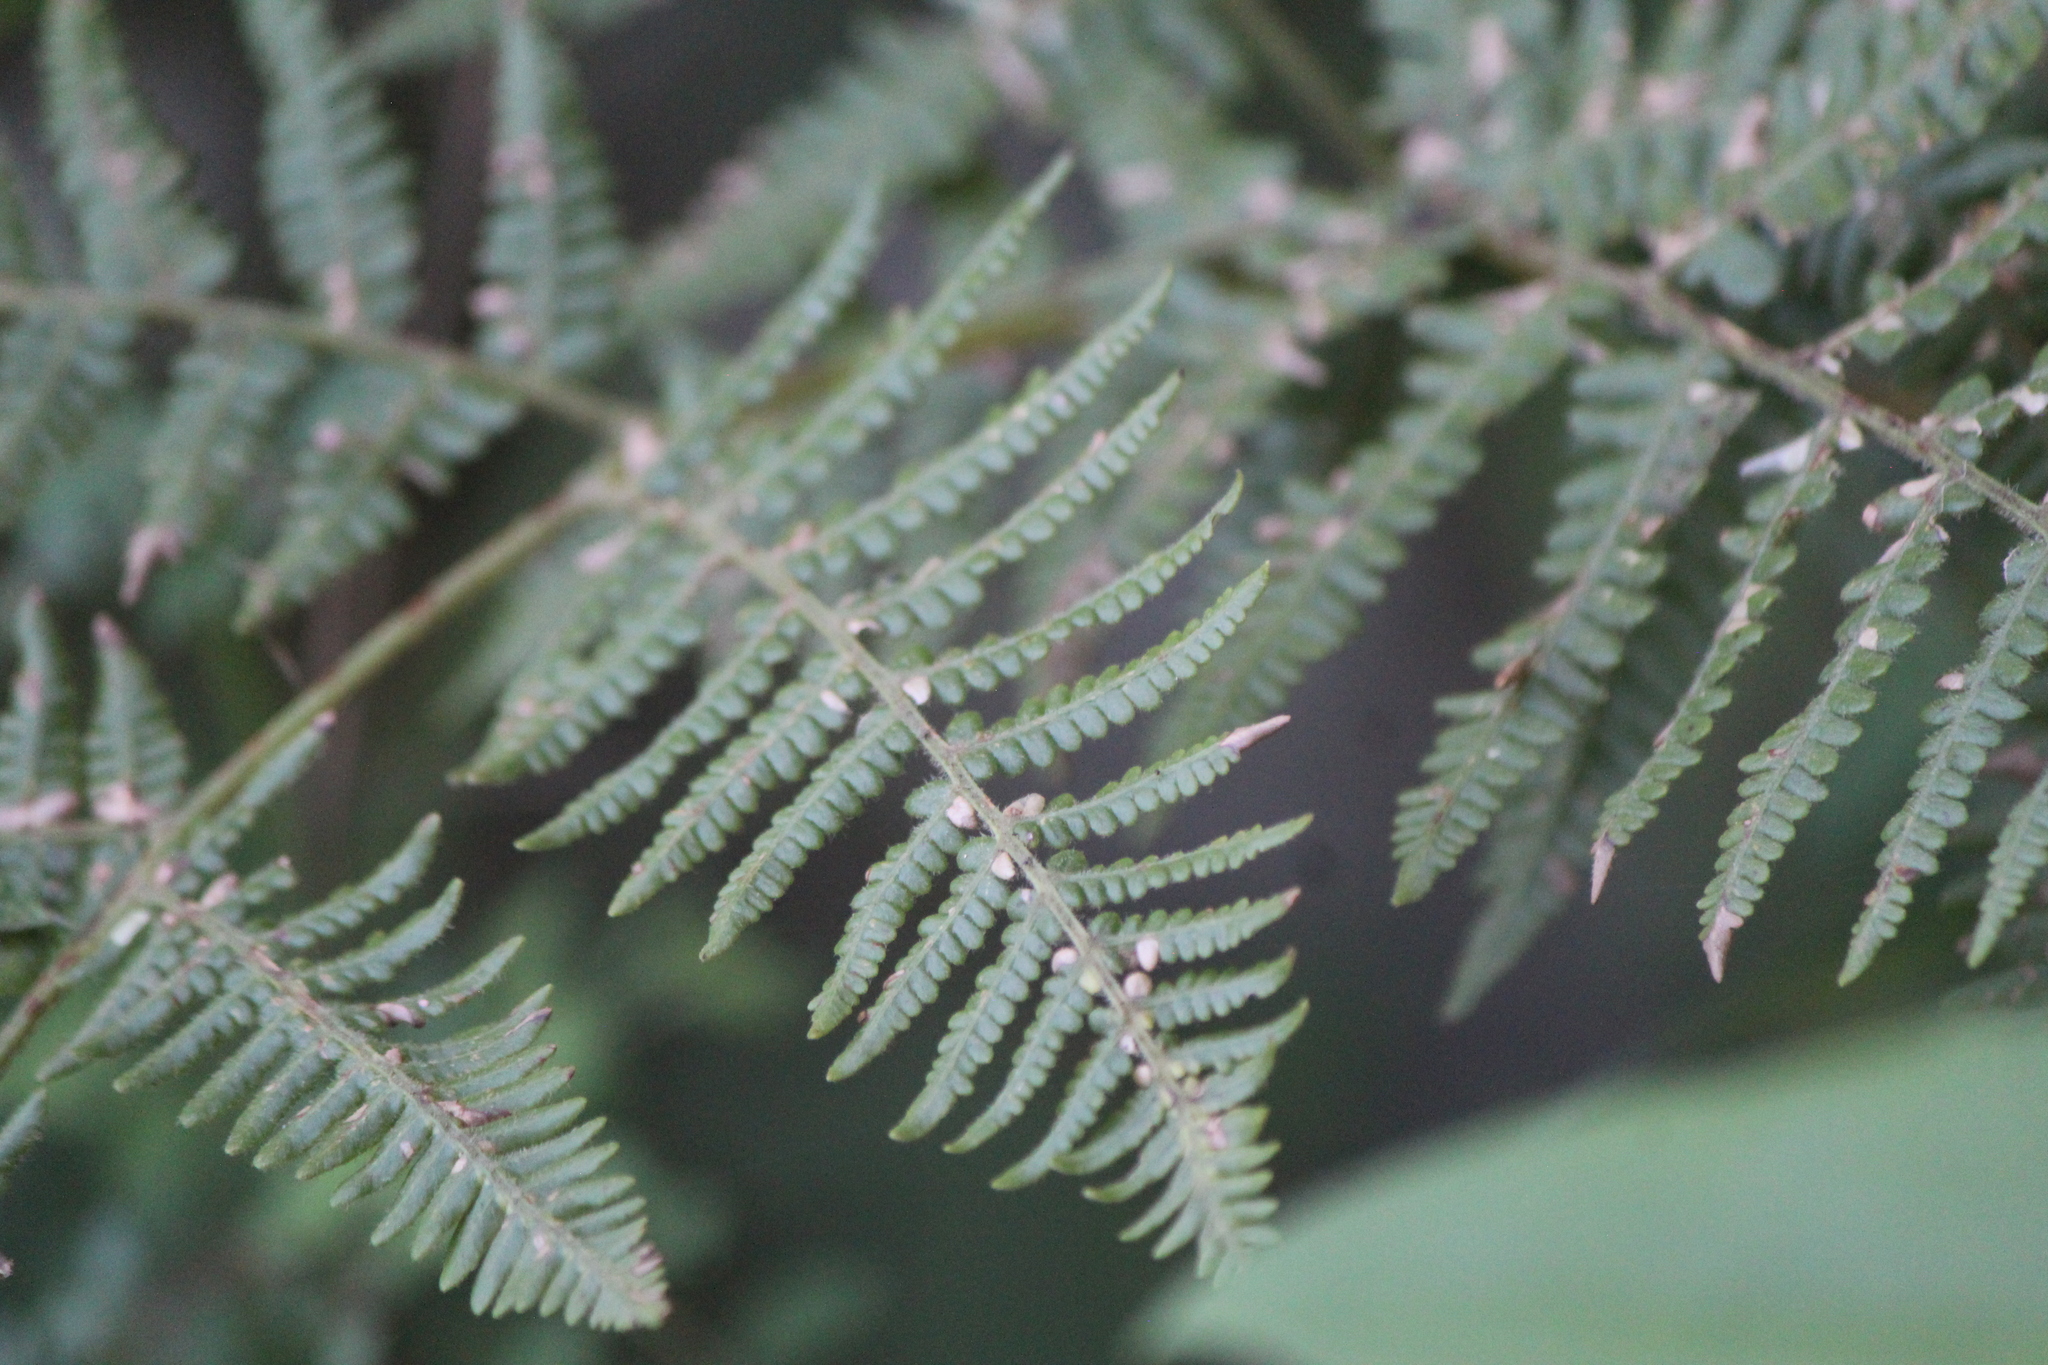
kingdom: Plantae
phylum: Tracheophyta
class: Polypodiopsida
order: Polypodiales
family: Dennstaedtiaceae
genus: Pteridium
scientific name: Pteridium aquilinum
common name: Bracken
